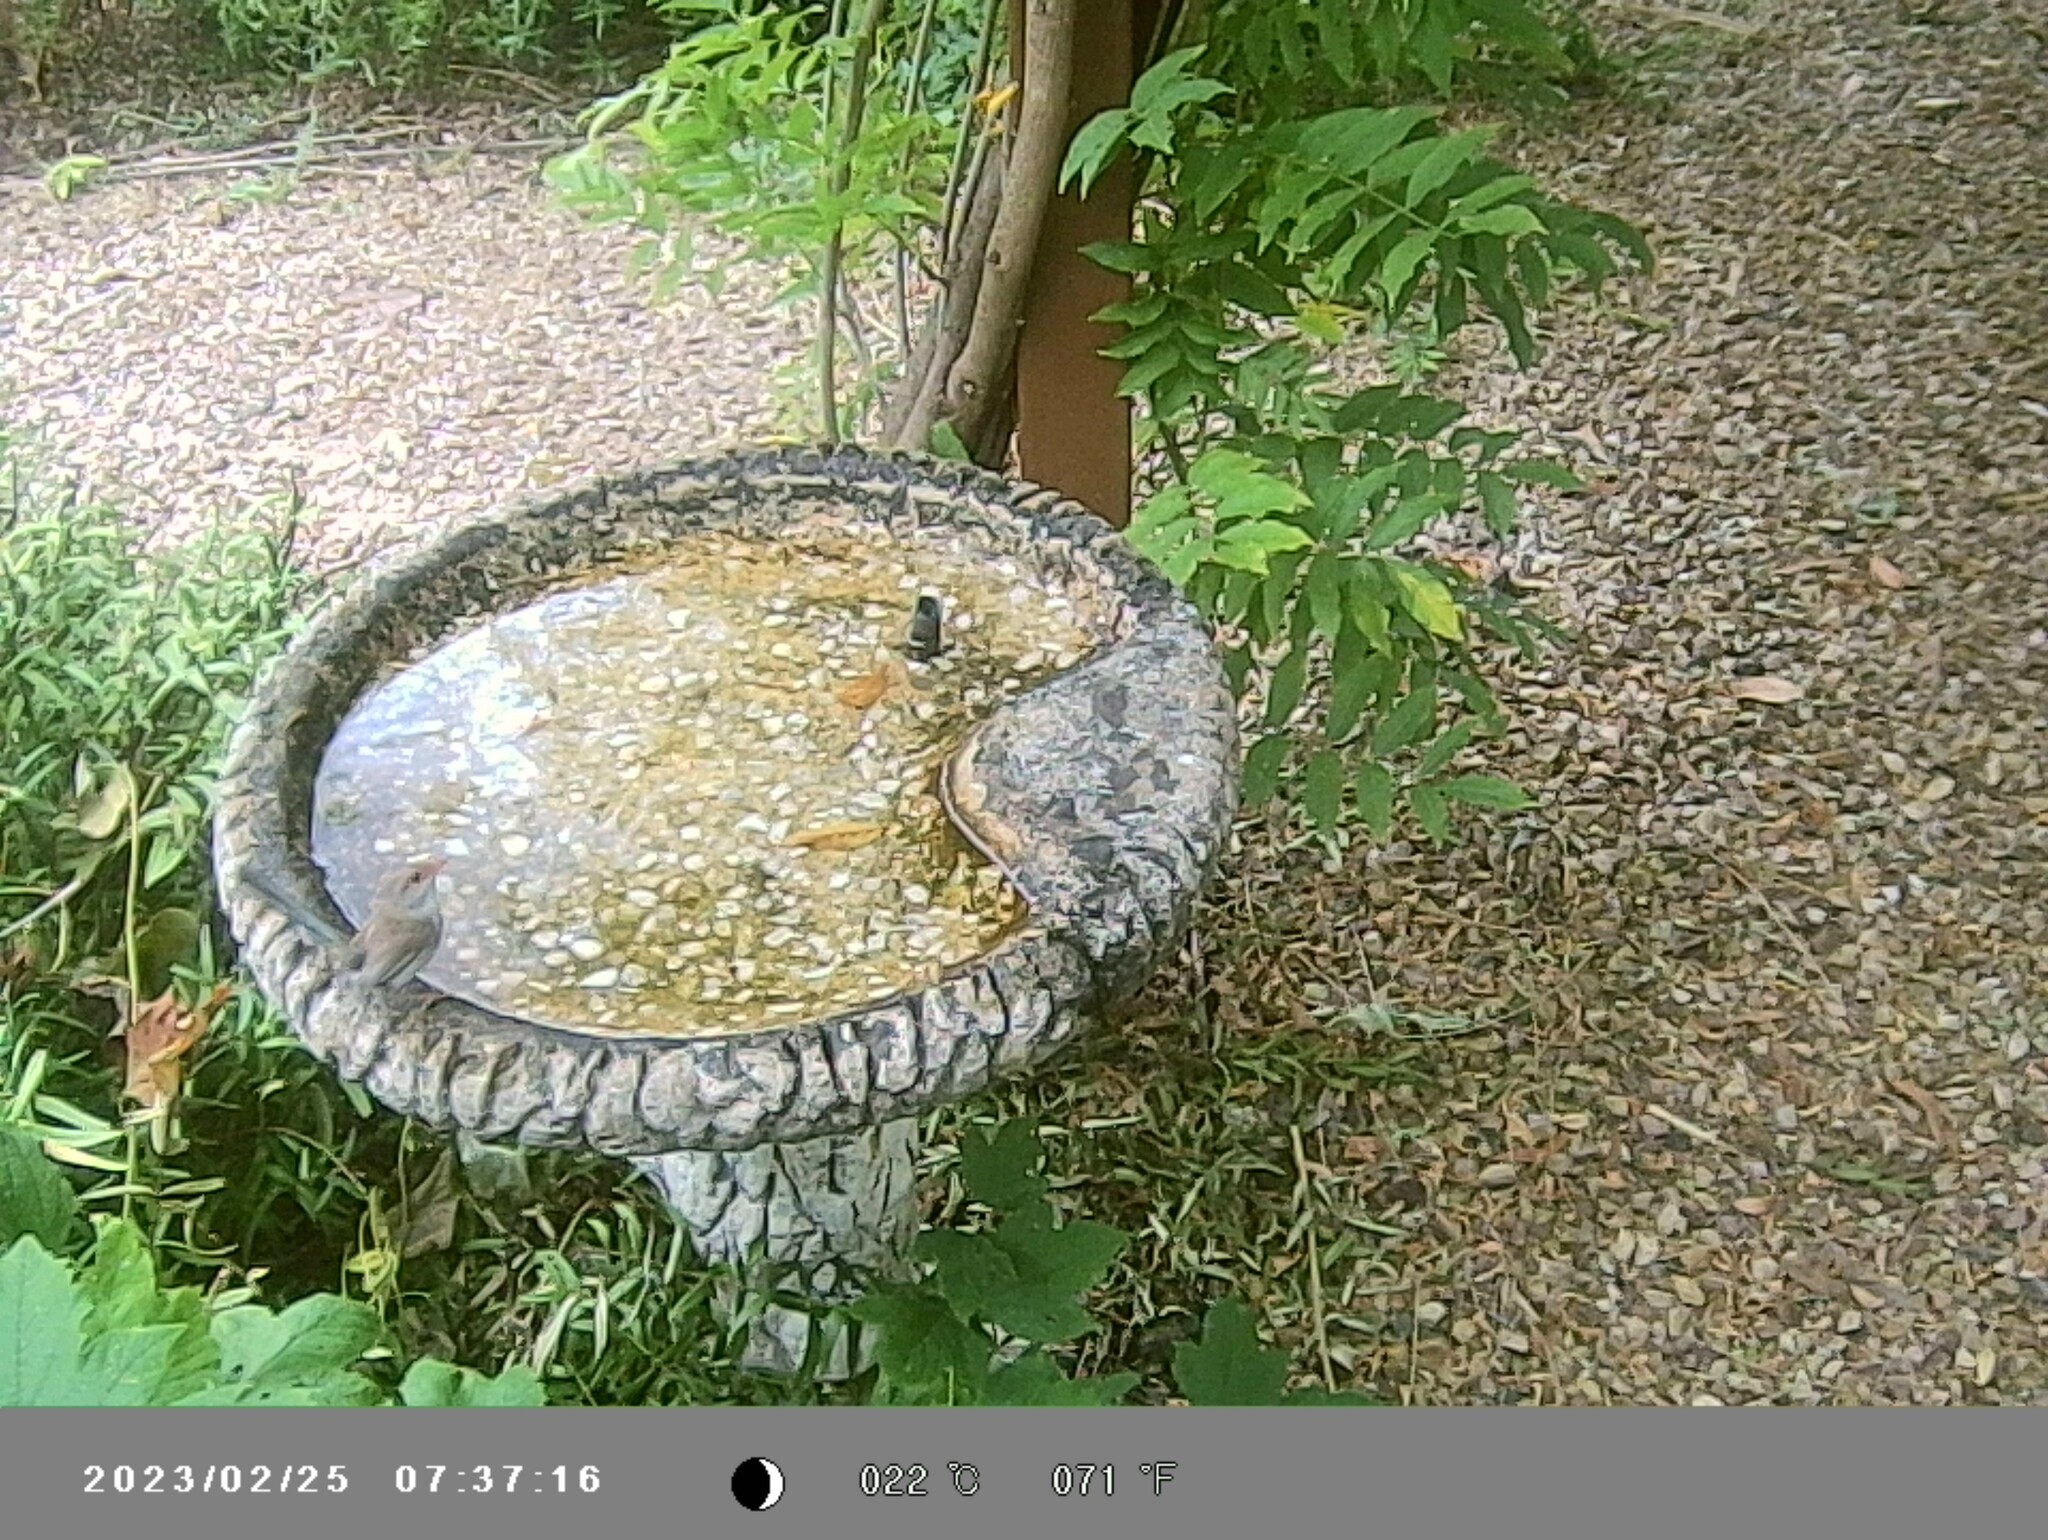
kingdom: Animalia
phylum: Chordata
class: Aves
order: Passeriformes
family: Maluridae
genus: Malurus
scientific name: Malurus cyaneus
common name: Superb fairywren
